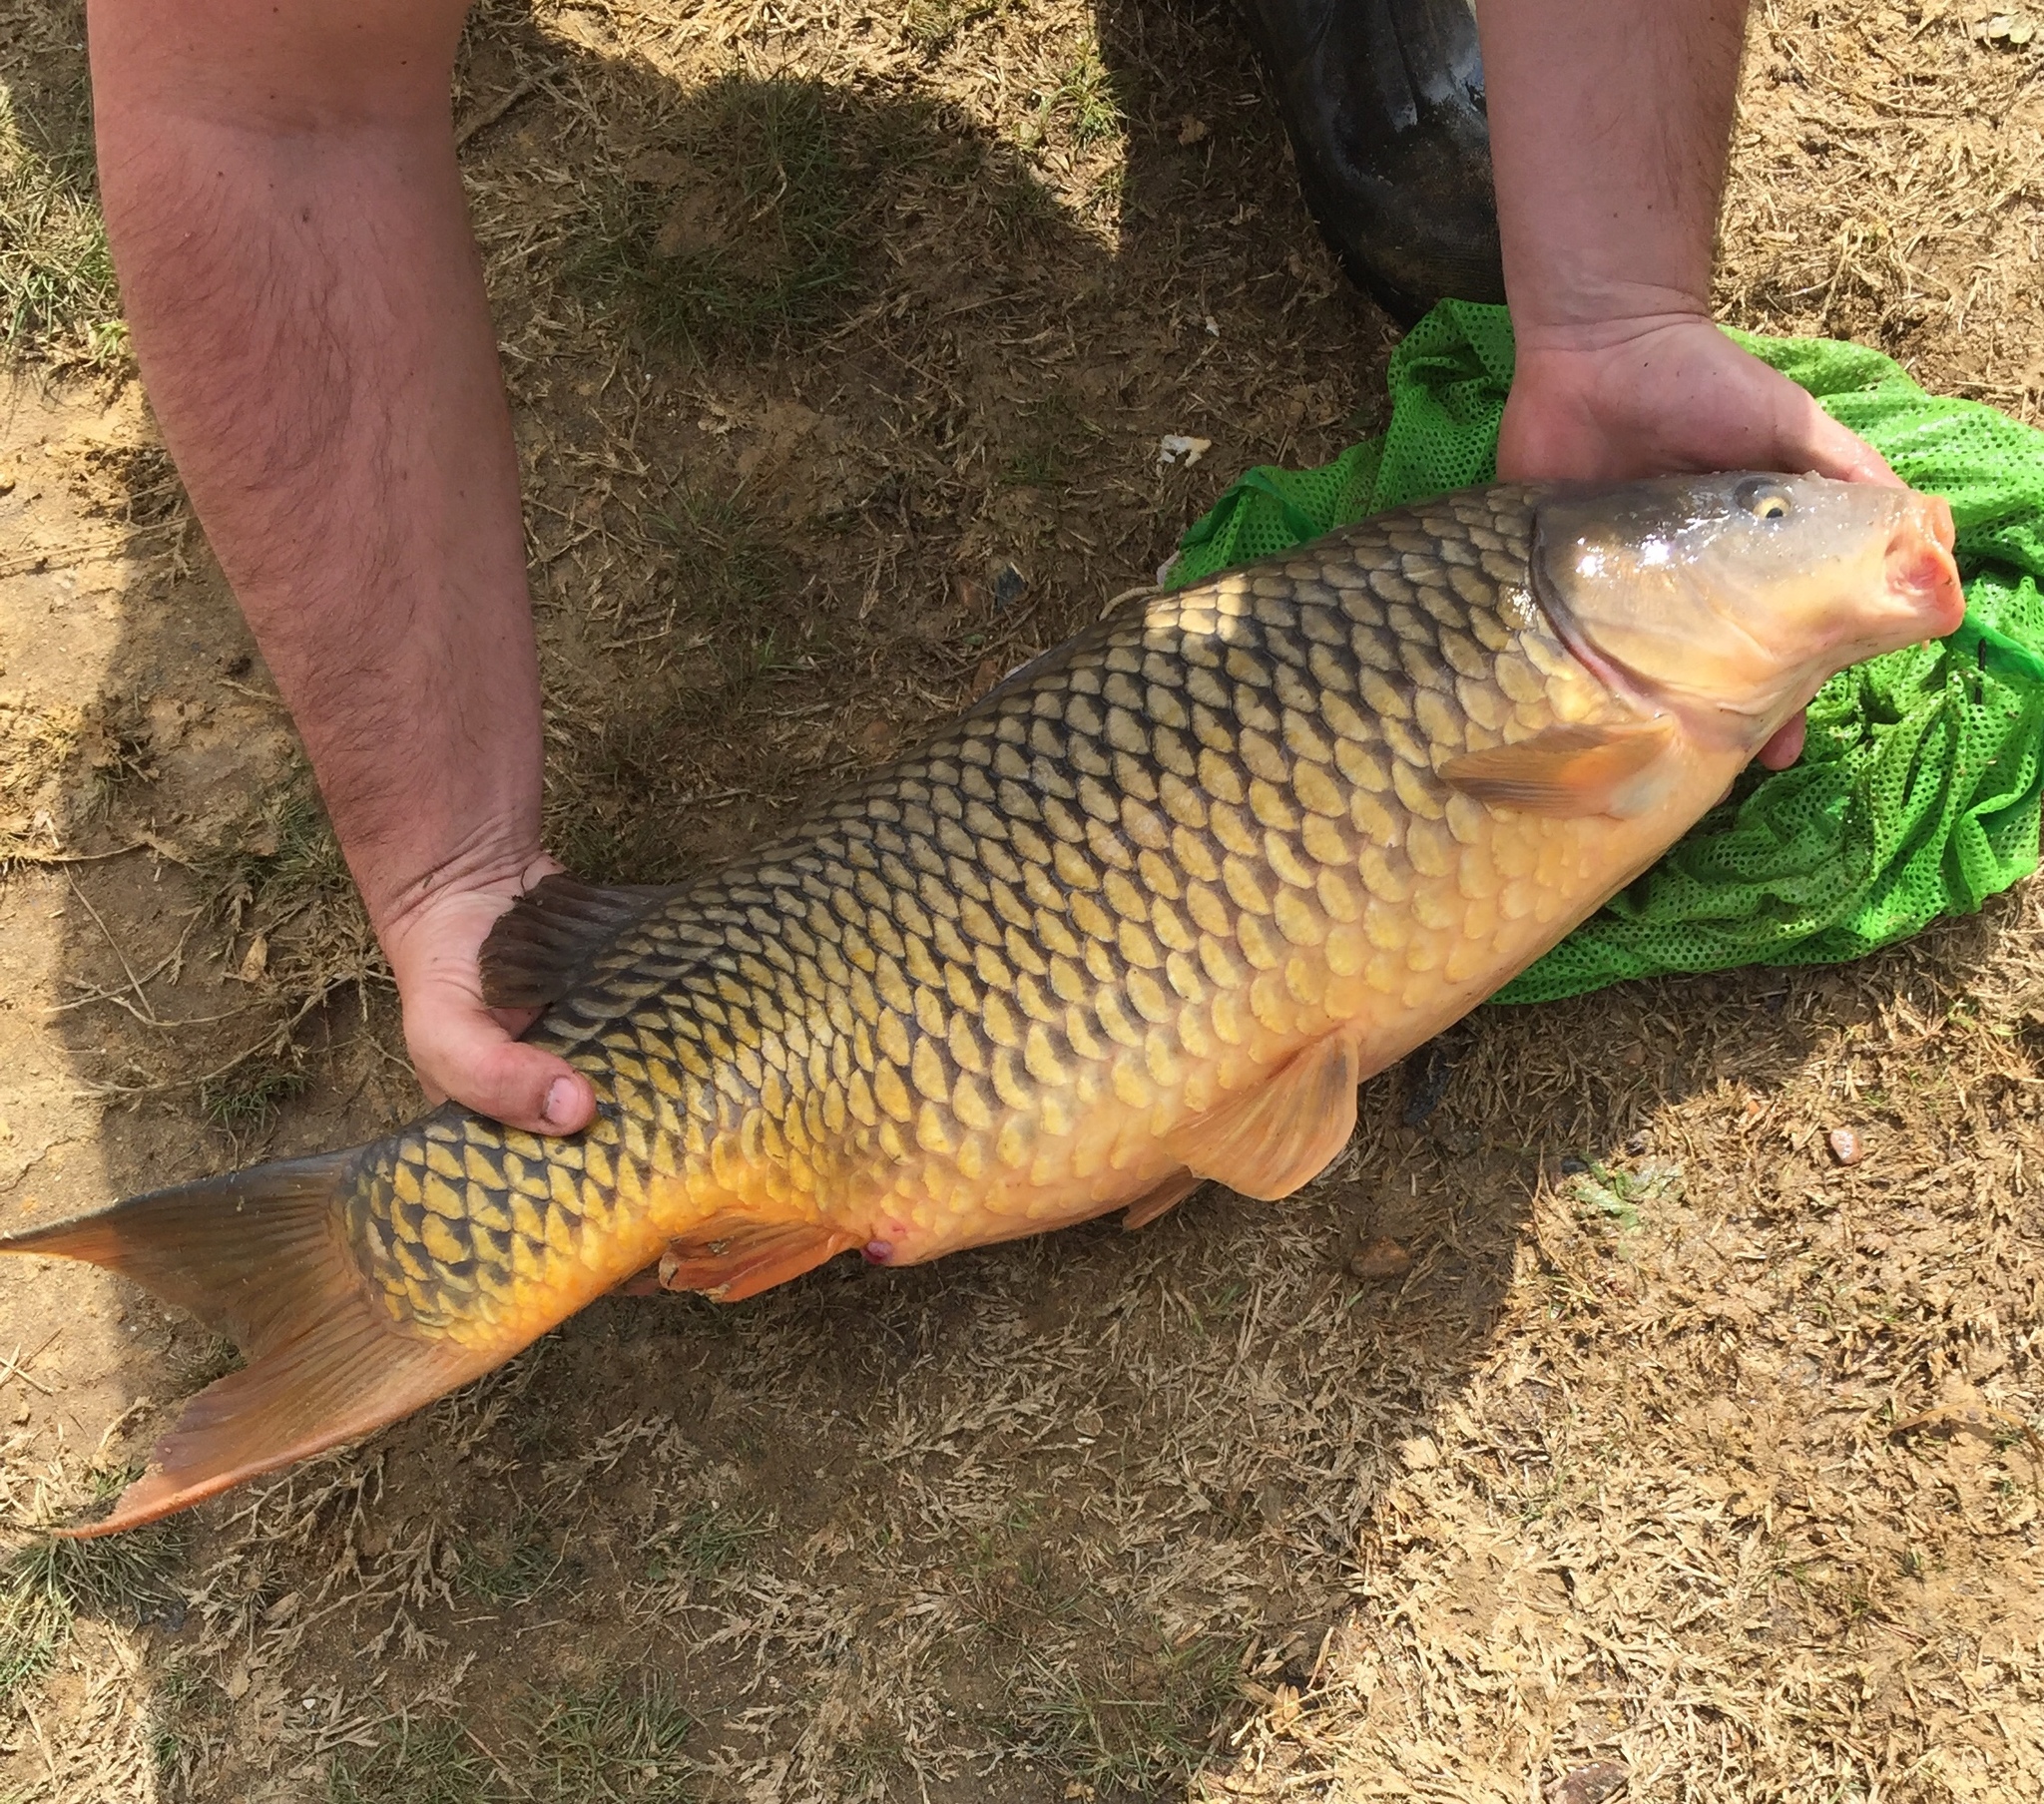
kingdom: Animalia
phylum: Chordata
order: Cypriniformes
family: Cyprinidae
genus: Cyprinus
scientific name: Cyprinus carpio
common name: Common carp
